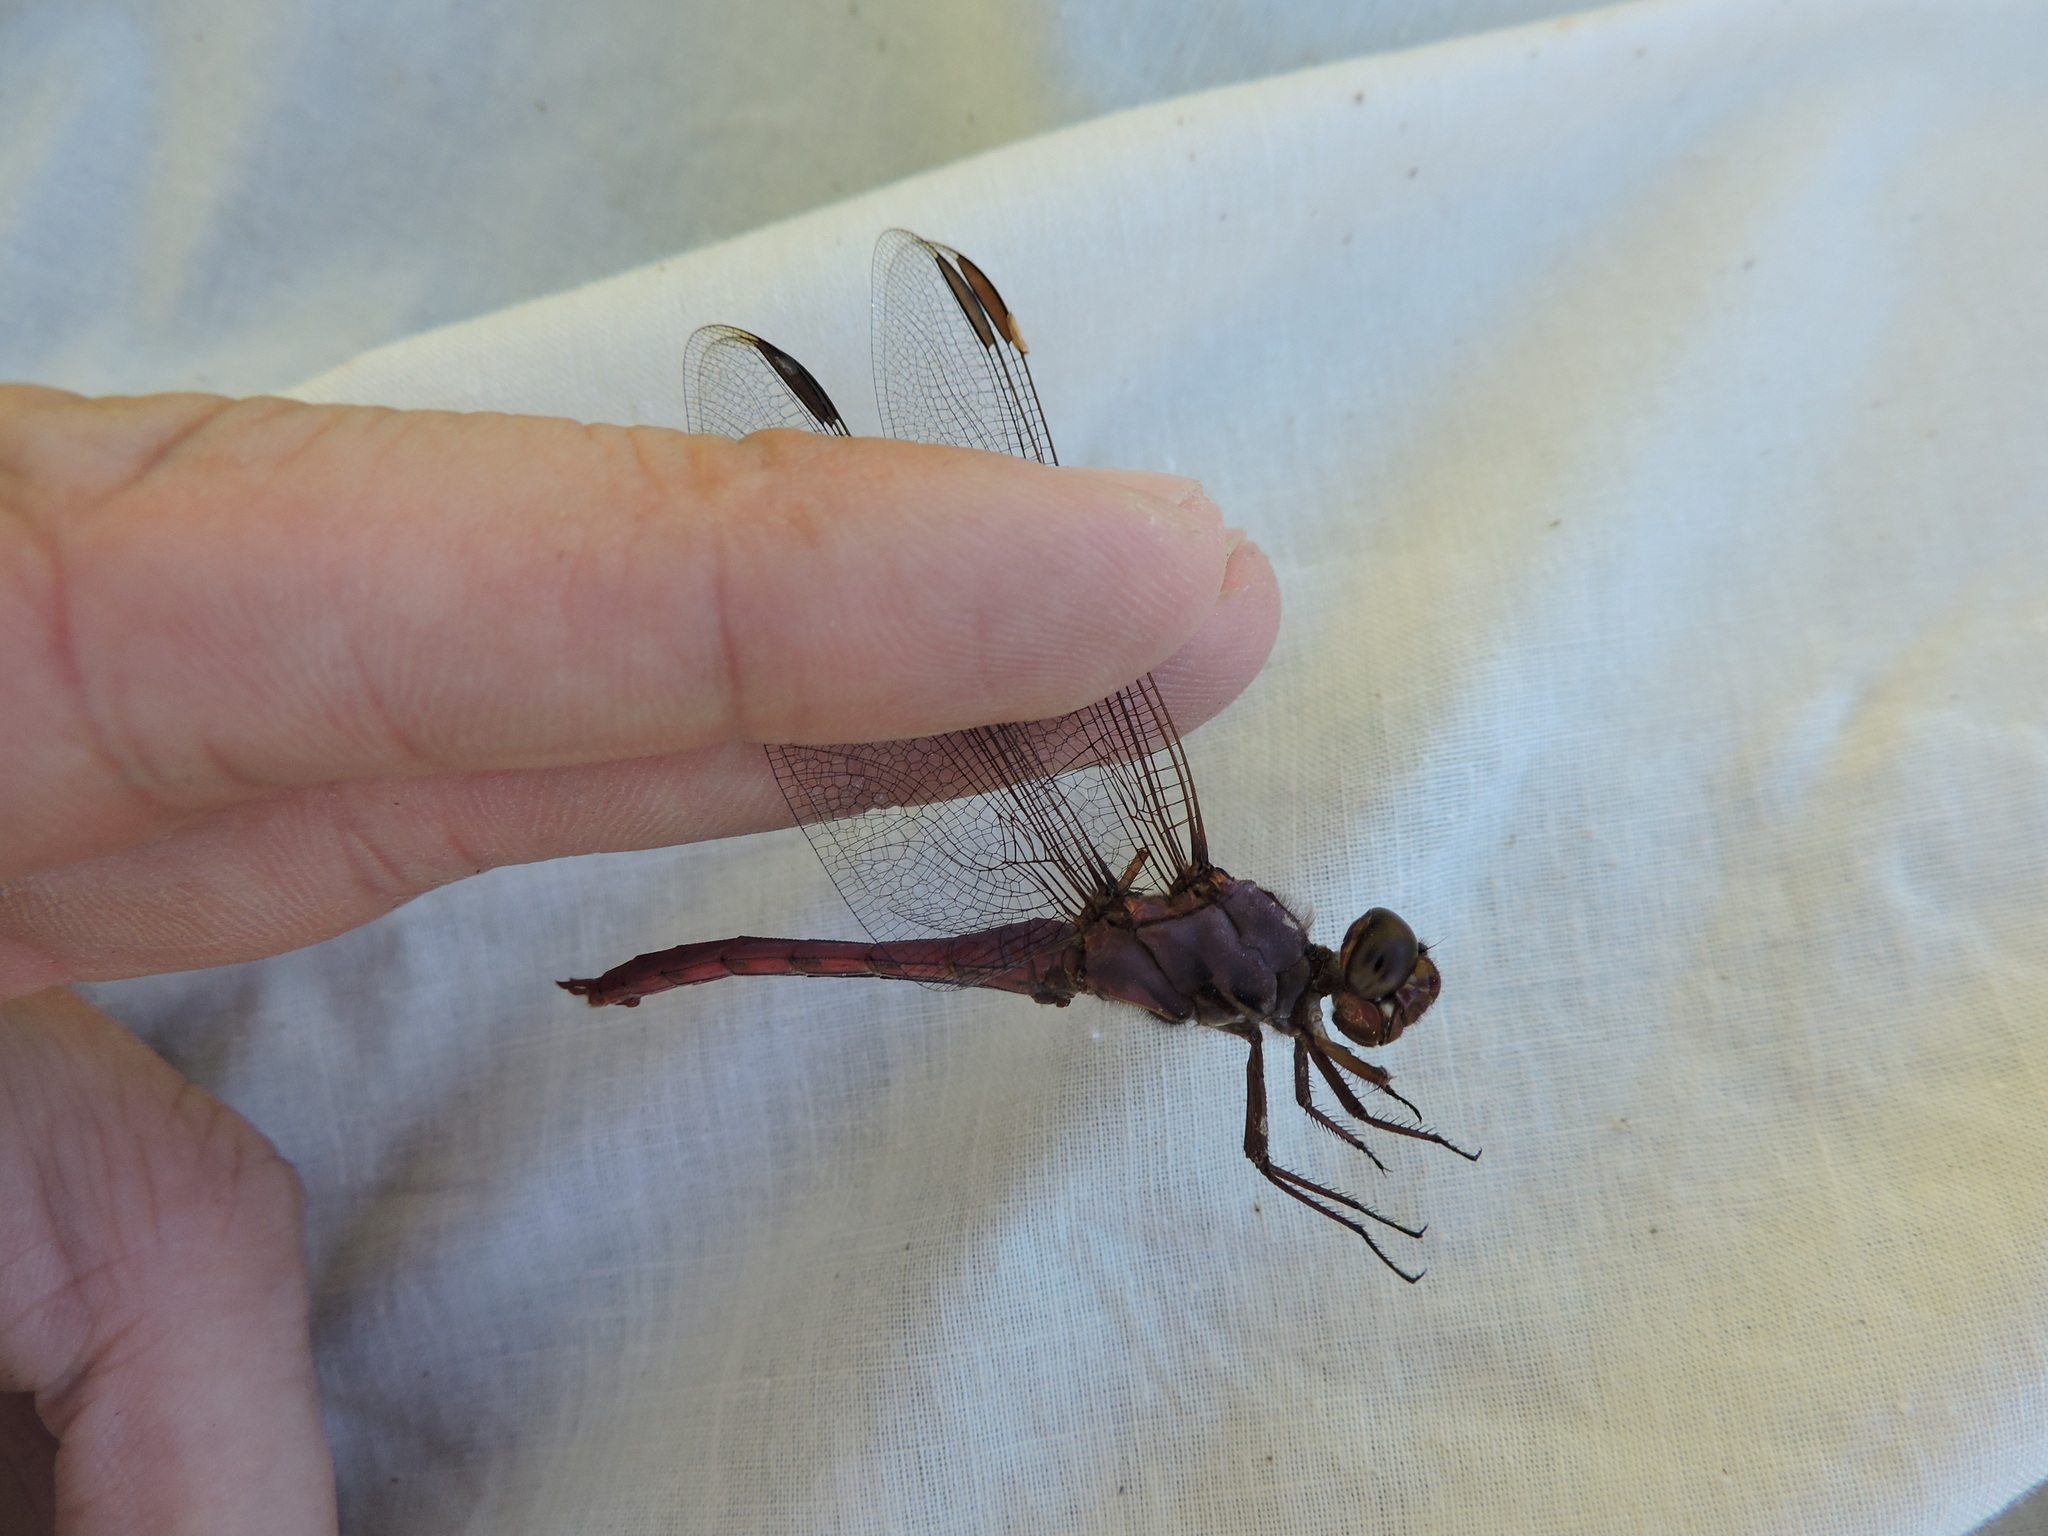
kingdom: Animalia
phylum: Arthropoda
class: Insecta
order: Odonata
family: Libellulidae
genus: Orthemis
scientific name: Orthemis ferruginea
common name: Roseate skimmer
